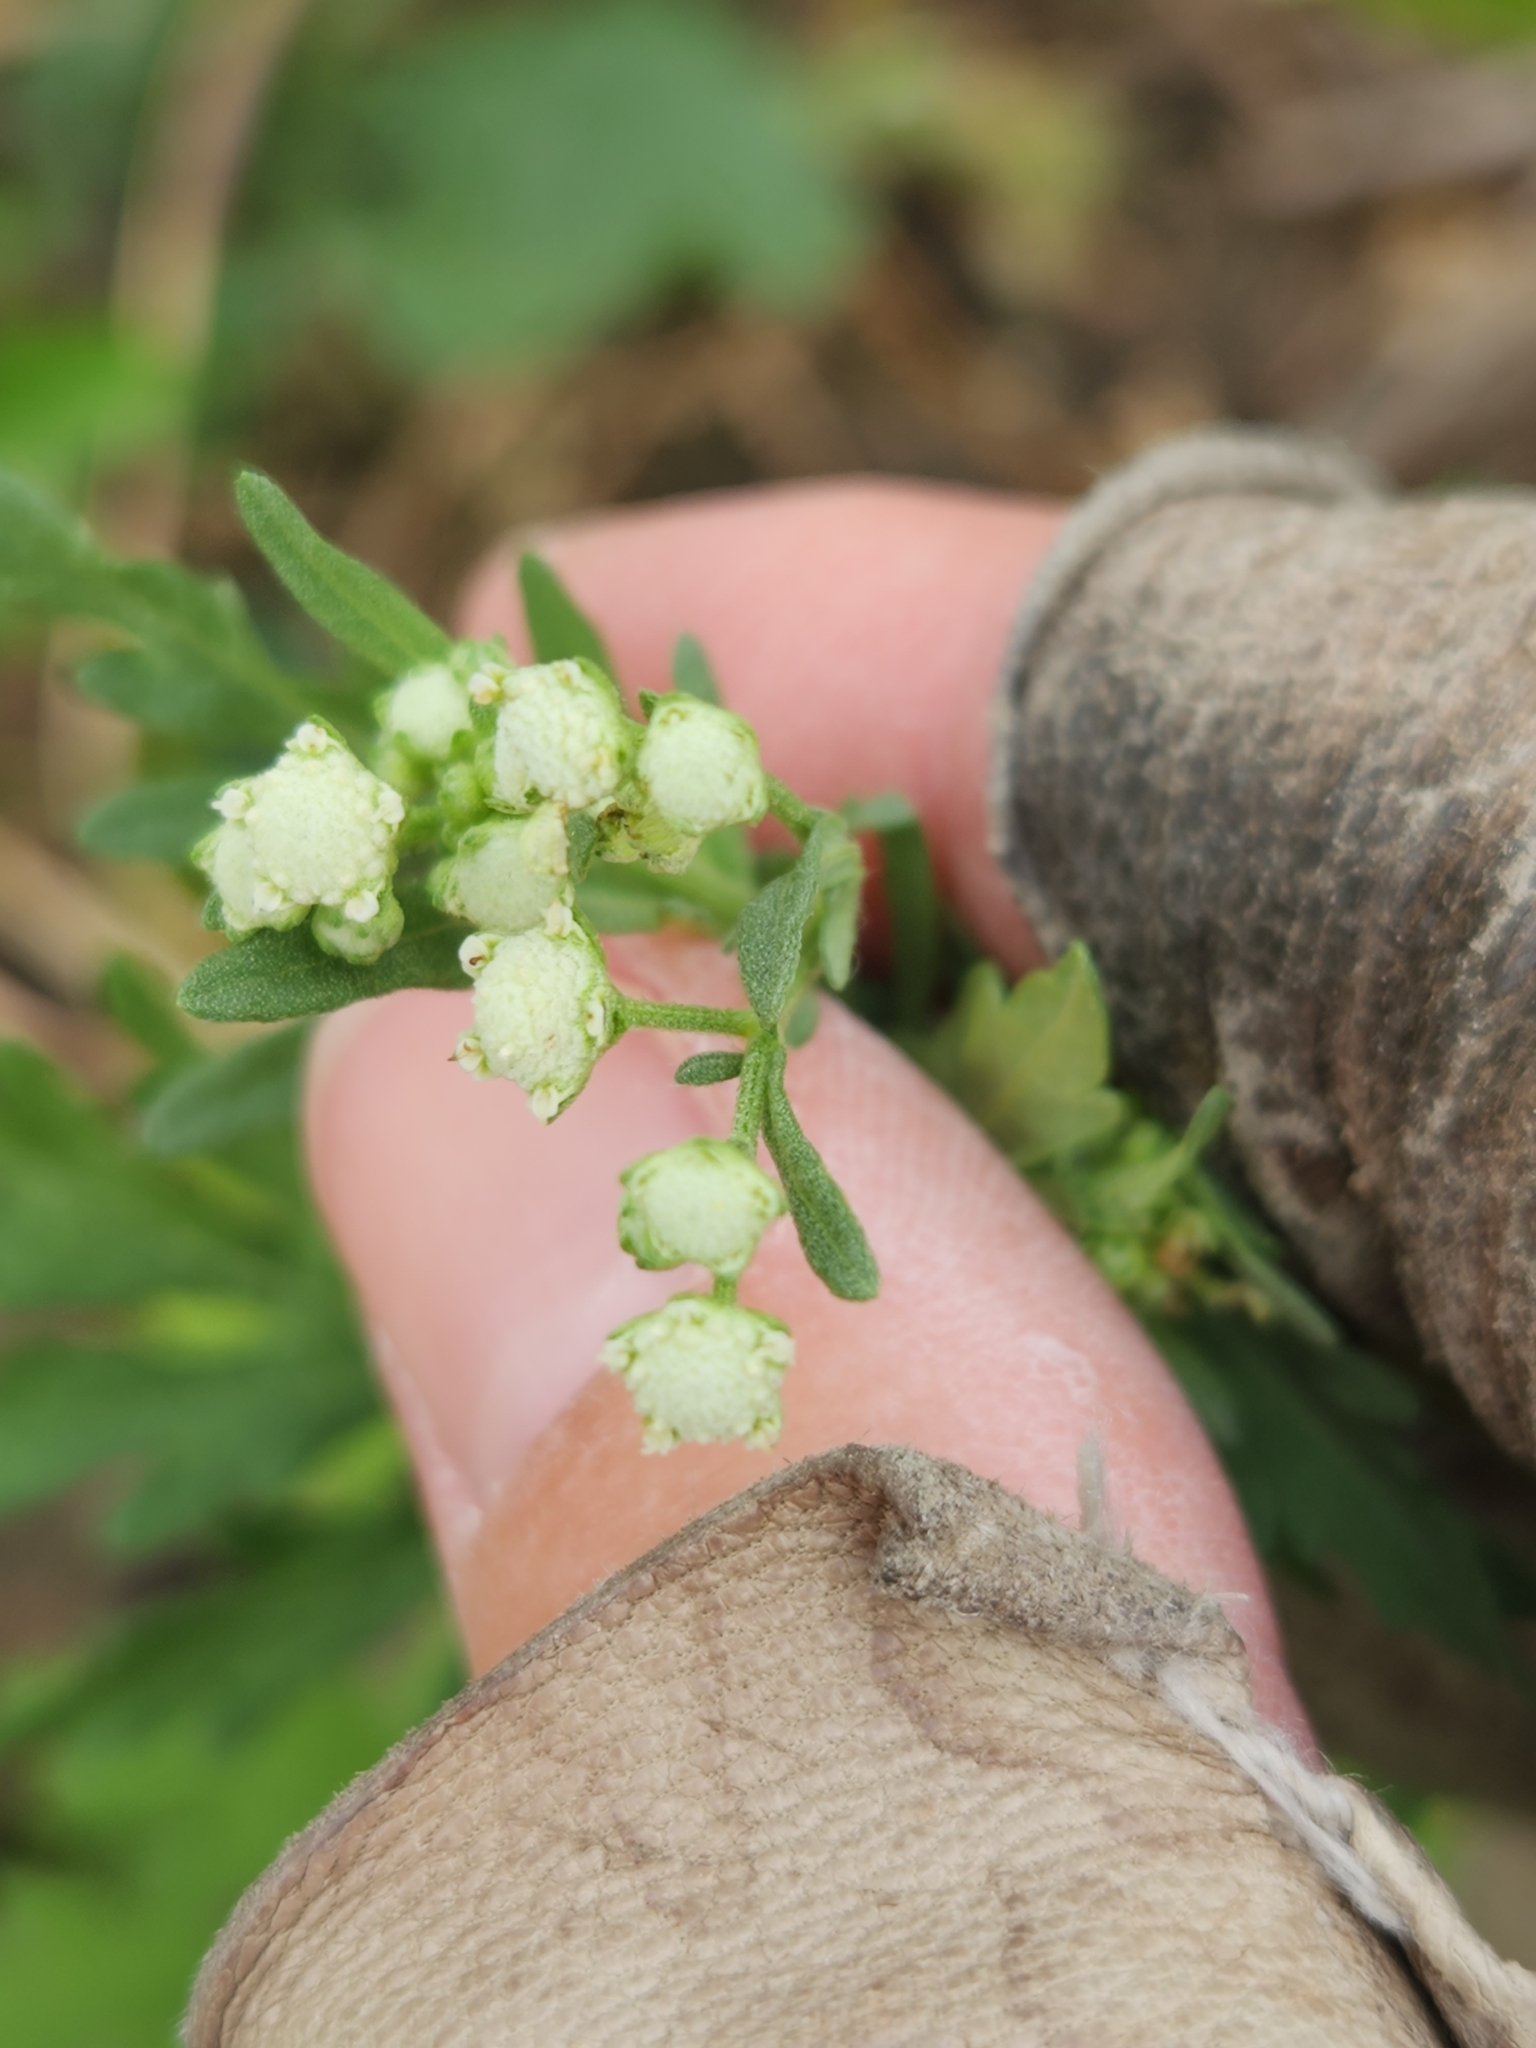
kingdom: Plantae
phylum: Tracheophyta
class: Magnoliopsida
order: Asterales
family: Asteraceae
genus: Parthenium
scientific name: Parthenium hysterophorus
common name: Santa maria feverfew
